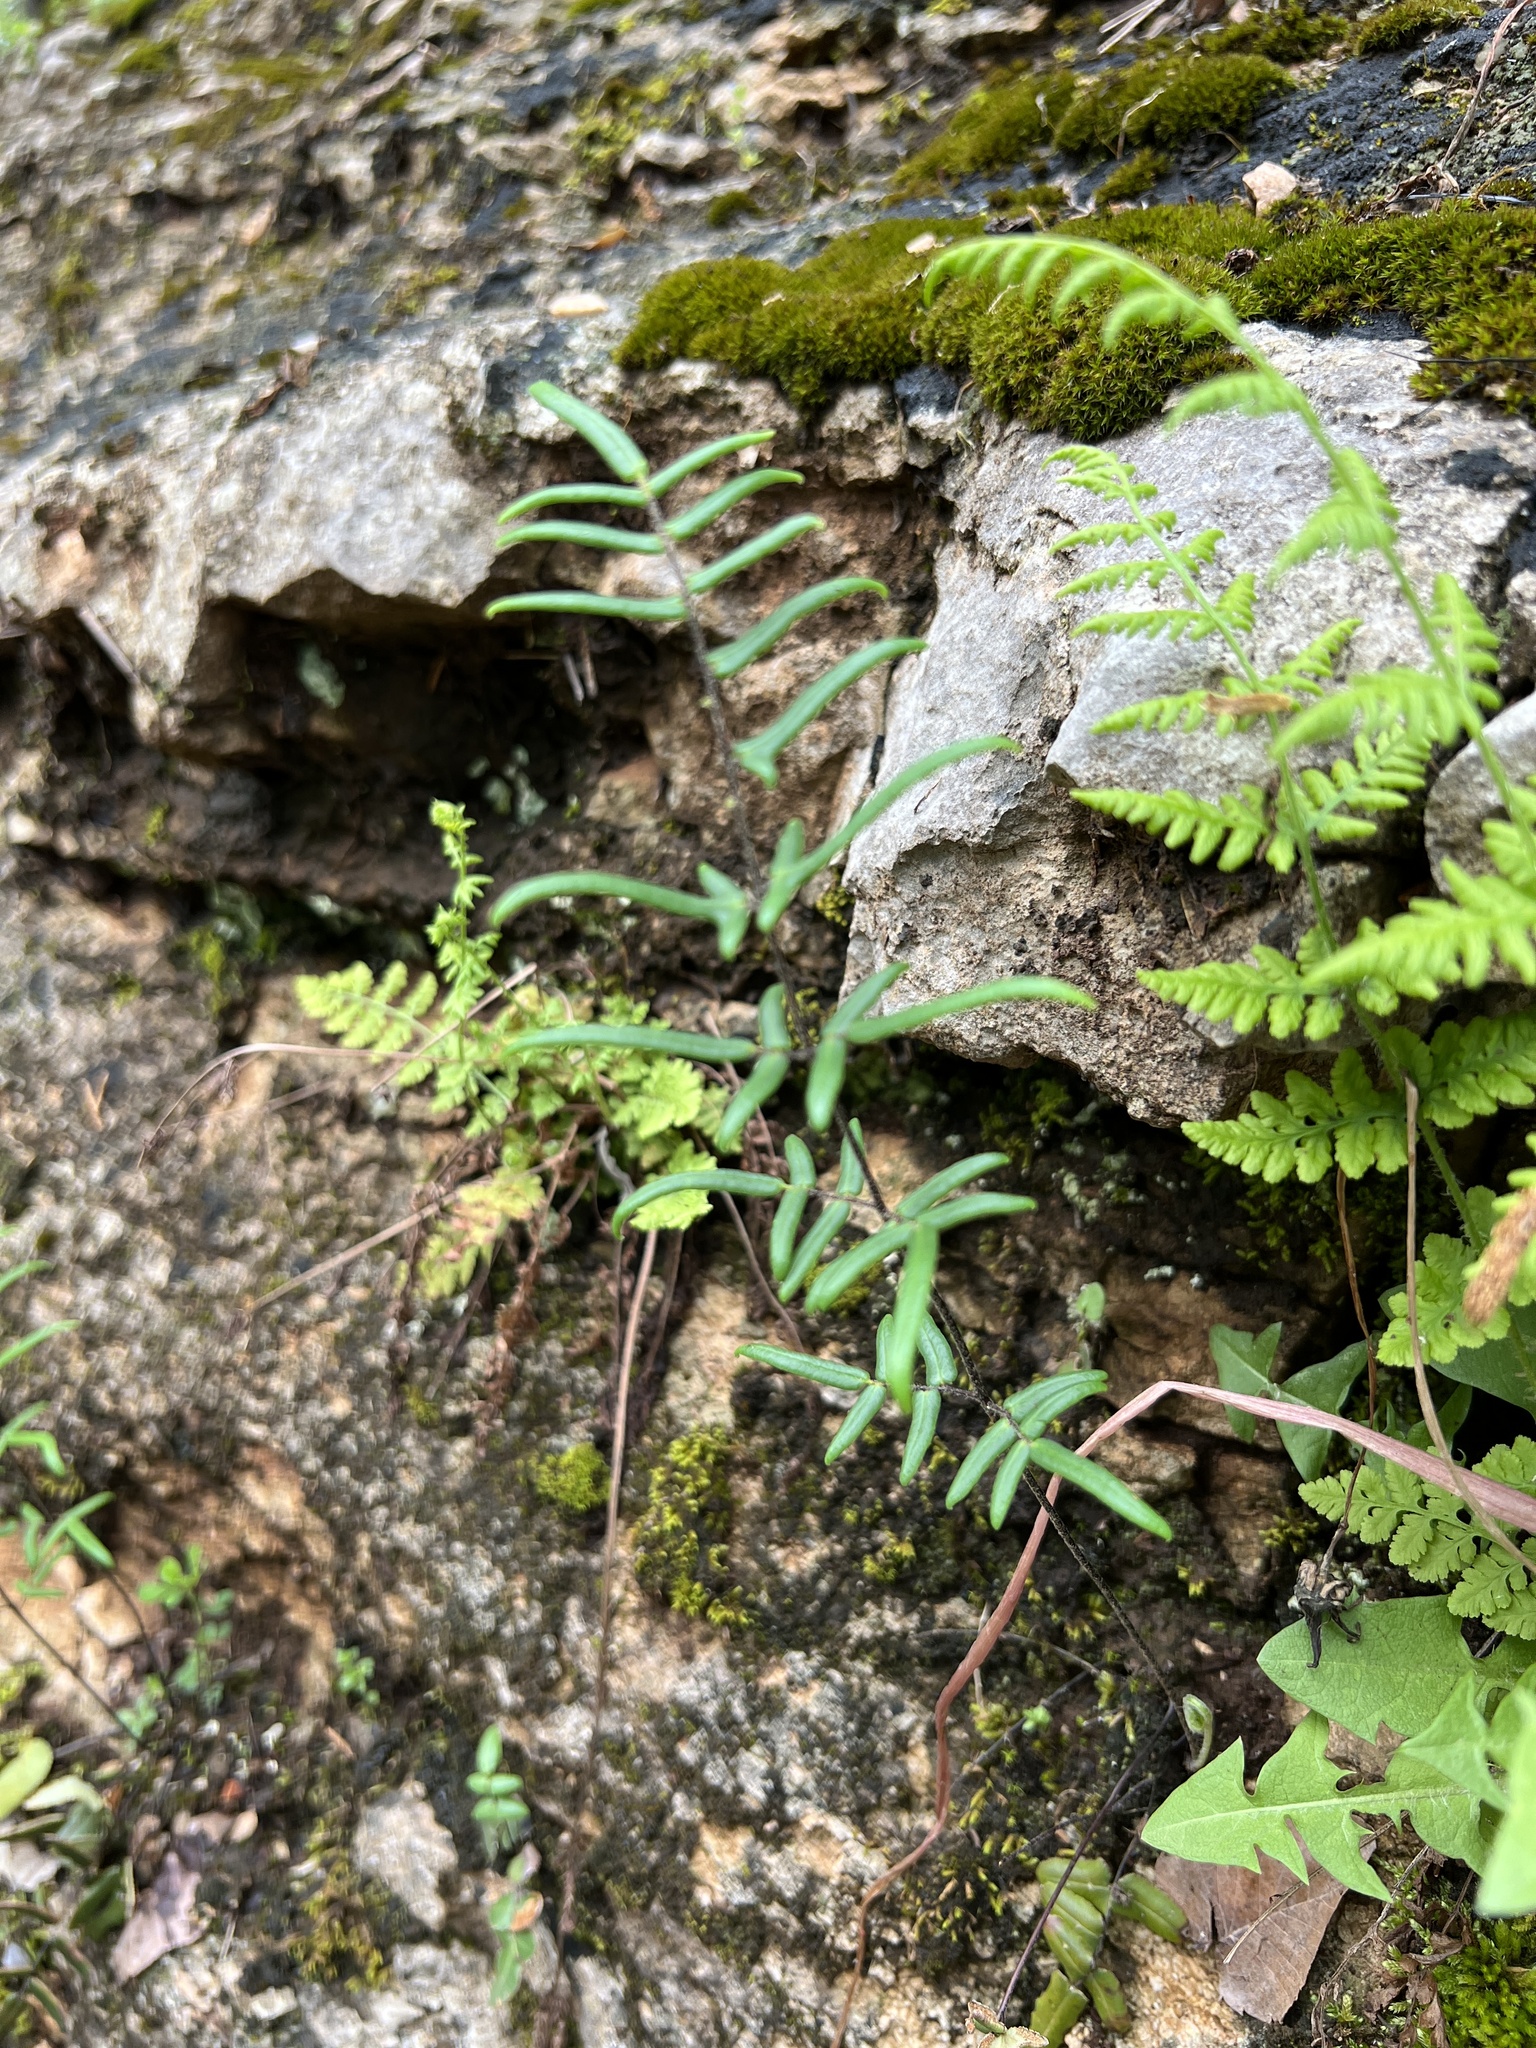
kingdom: Plantae
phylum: Tracheophyta
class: Polypodiopsida
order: Polypodiales
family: Pteridaceae
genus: Pellaea
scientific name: Pellaea atropurpurea
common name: Hairy cliffbrake
